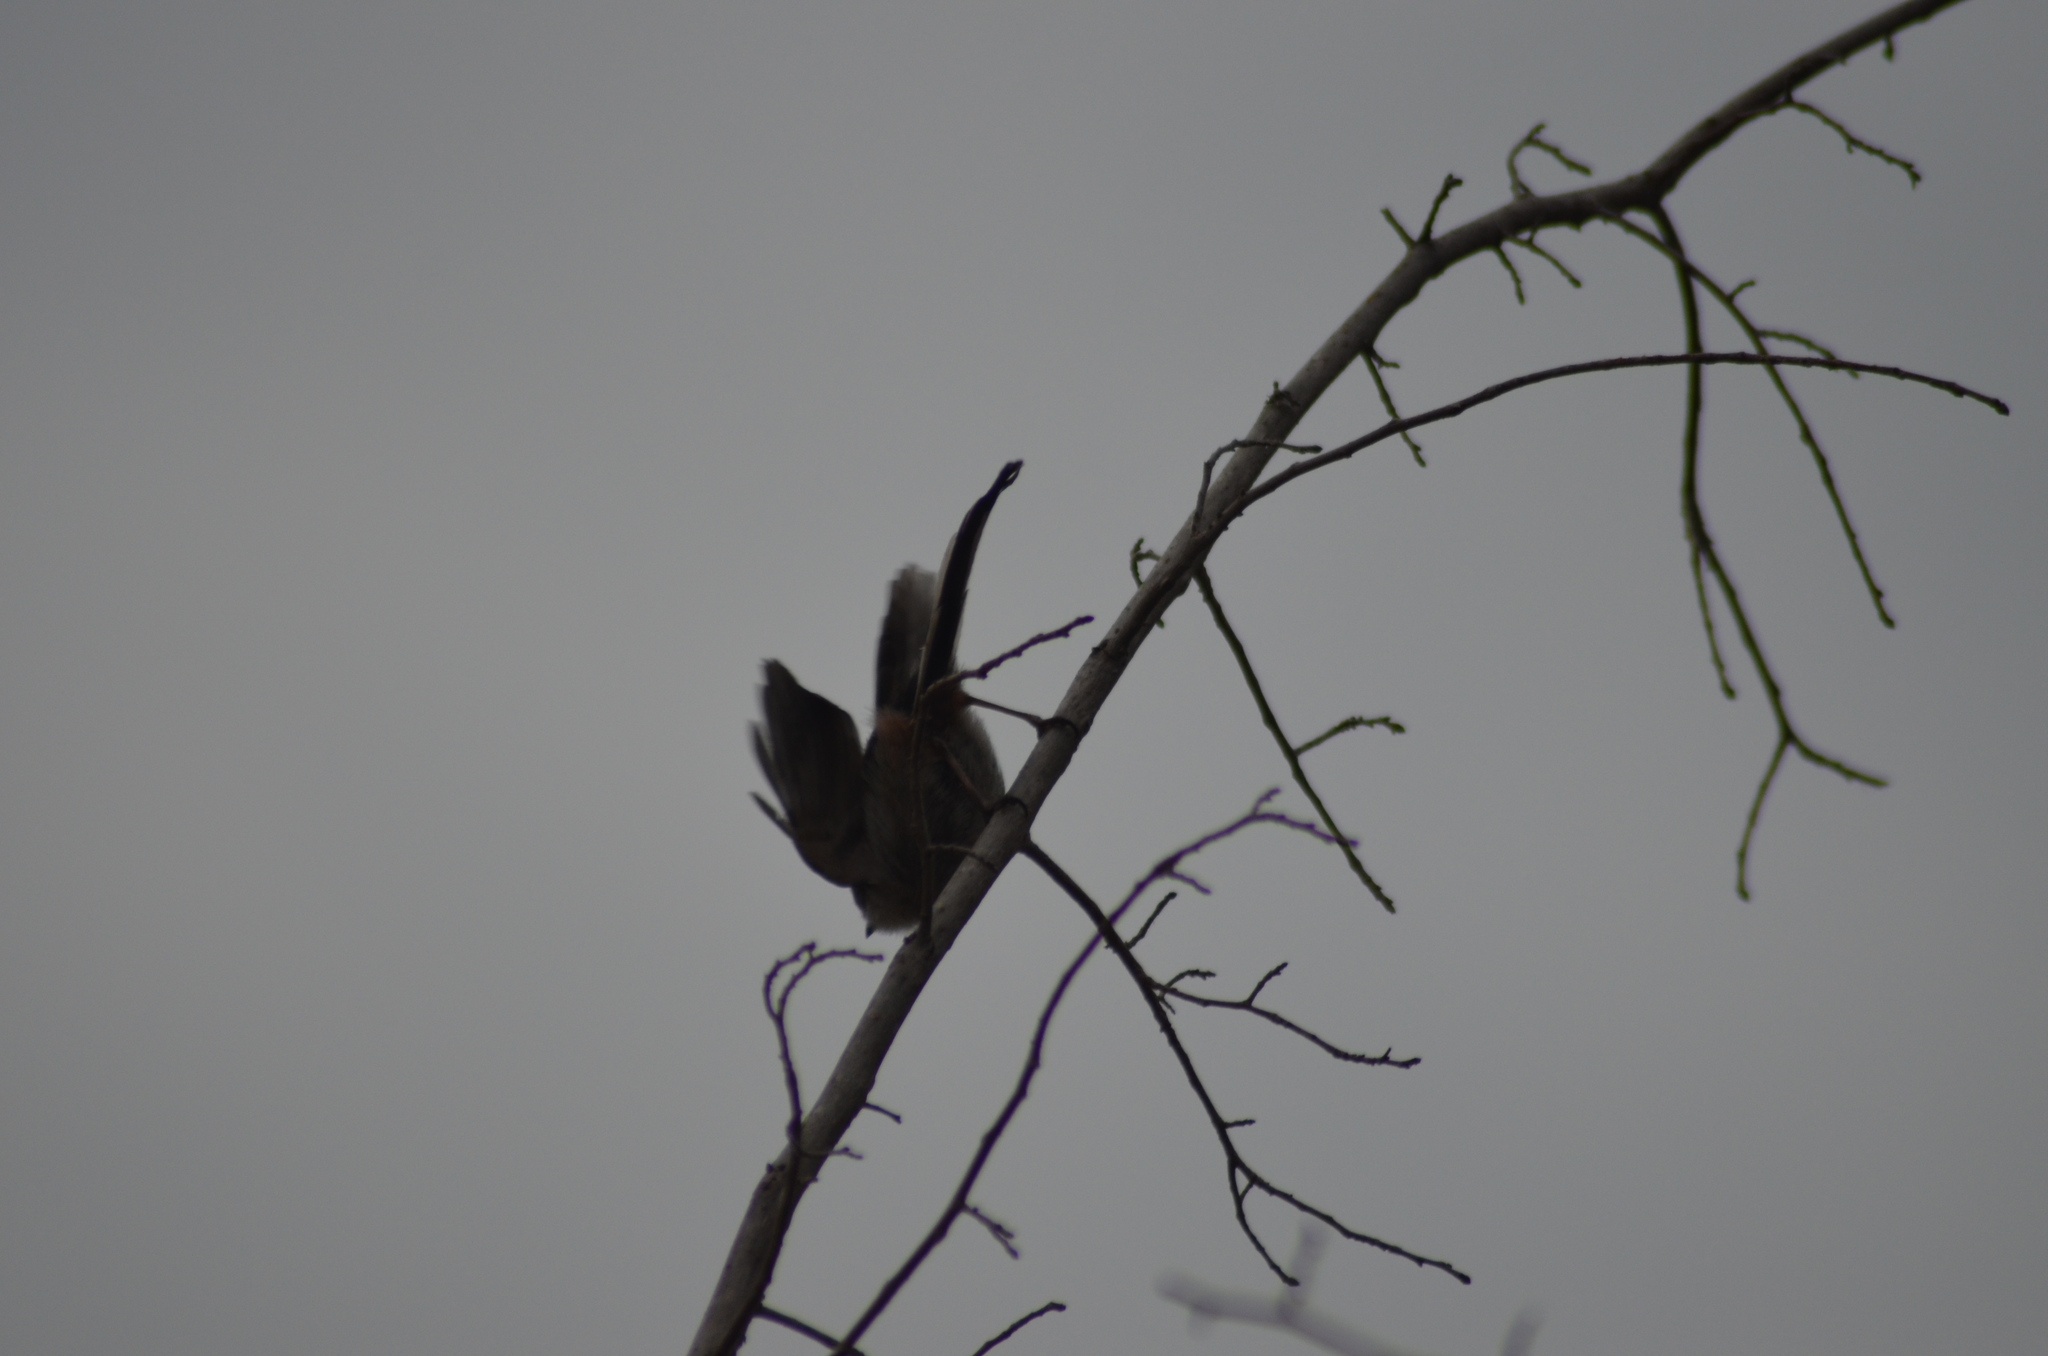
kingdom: Animalia
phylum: Chordata
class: Aves
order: Passeriformes
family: Aegithalidae
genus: Aegithalos
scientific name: Aegithalos caudatus
